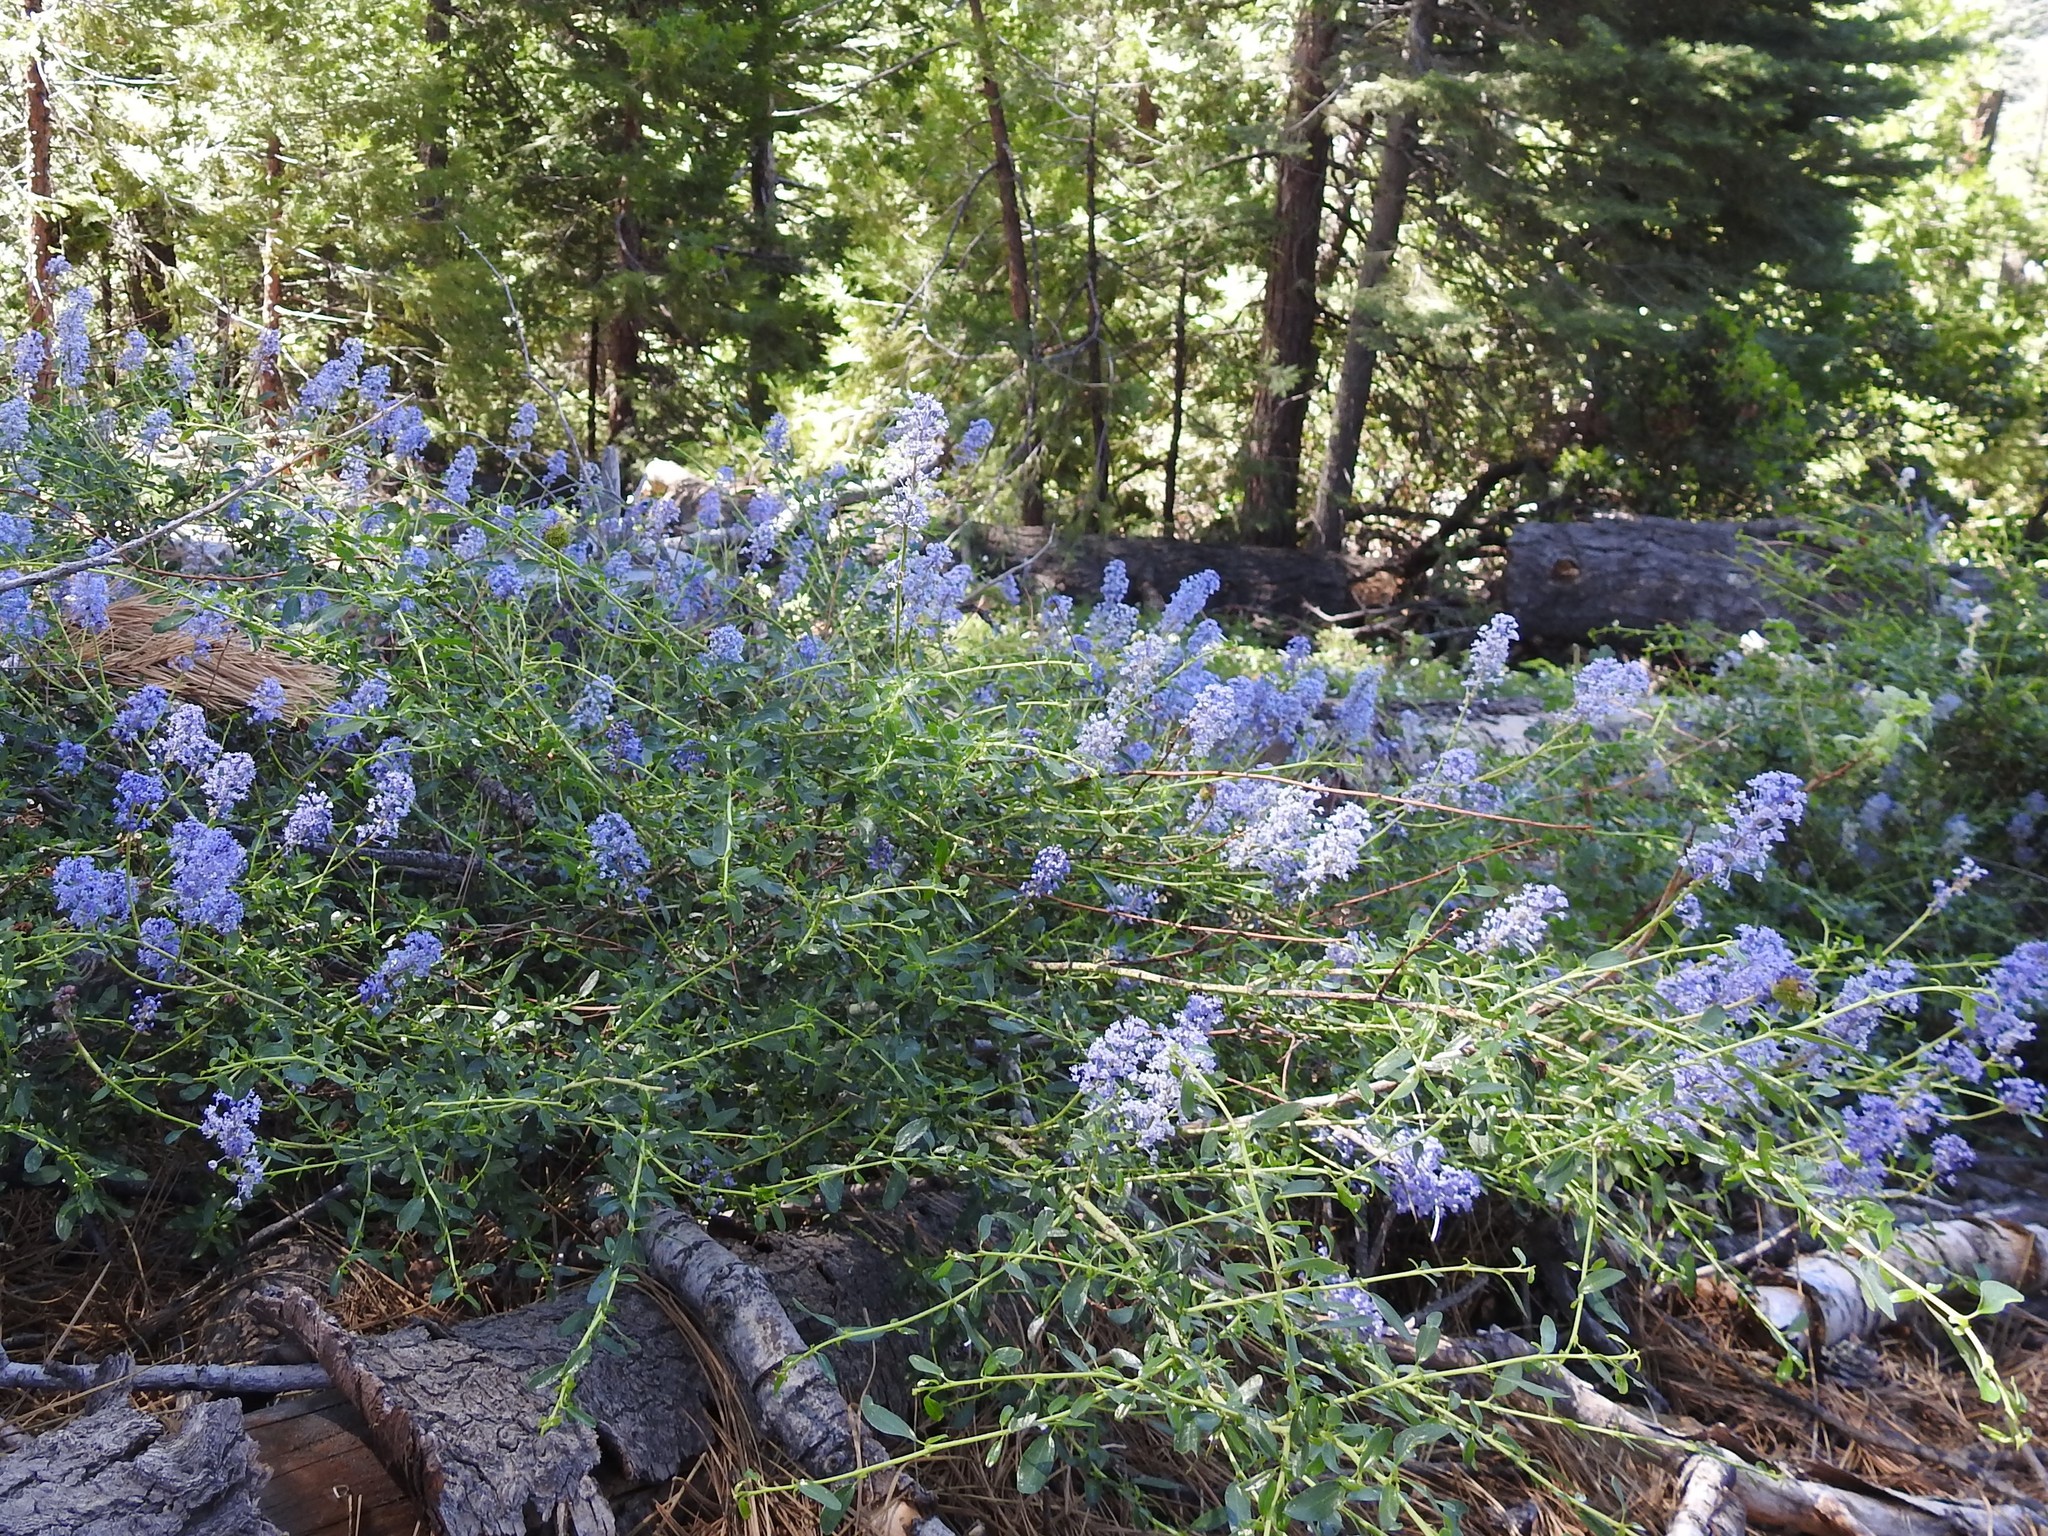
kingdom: Plantae
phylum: Tracheophyta
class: Magnoliopsida
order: Rosales
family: Rhamnaceae
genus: Ceanothus
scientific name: Ceanothus parvifolius
